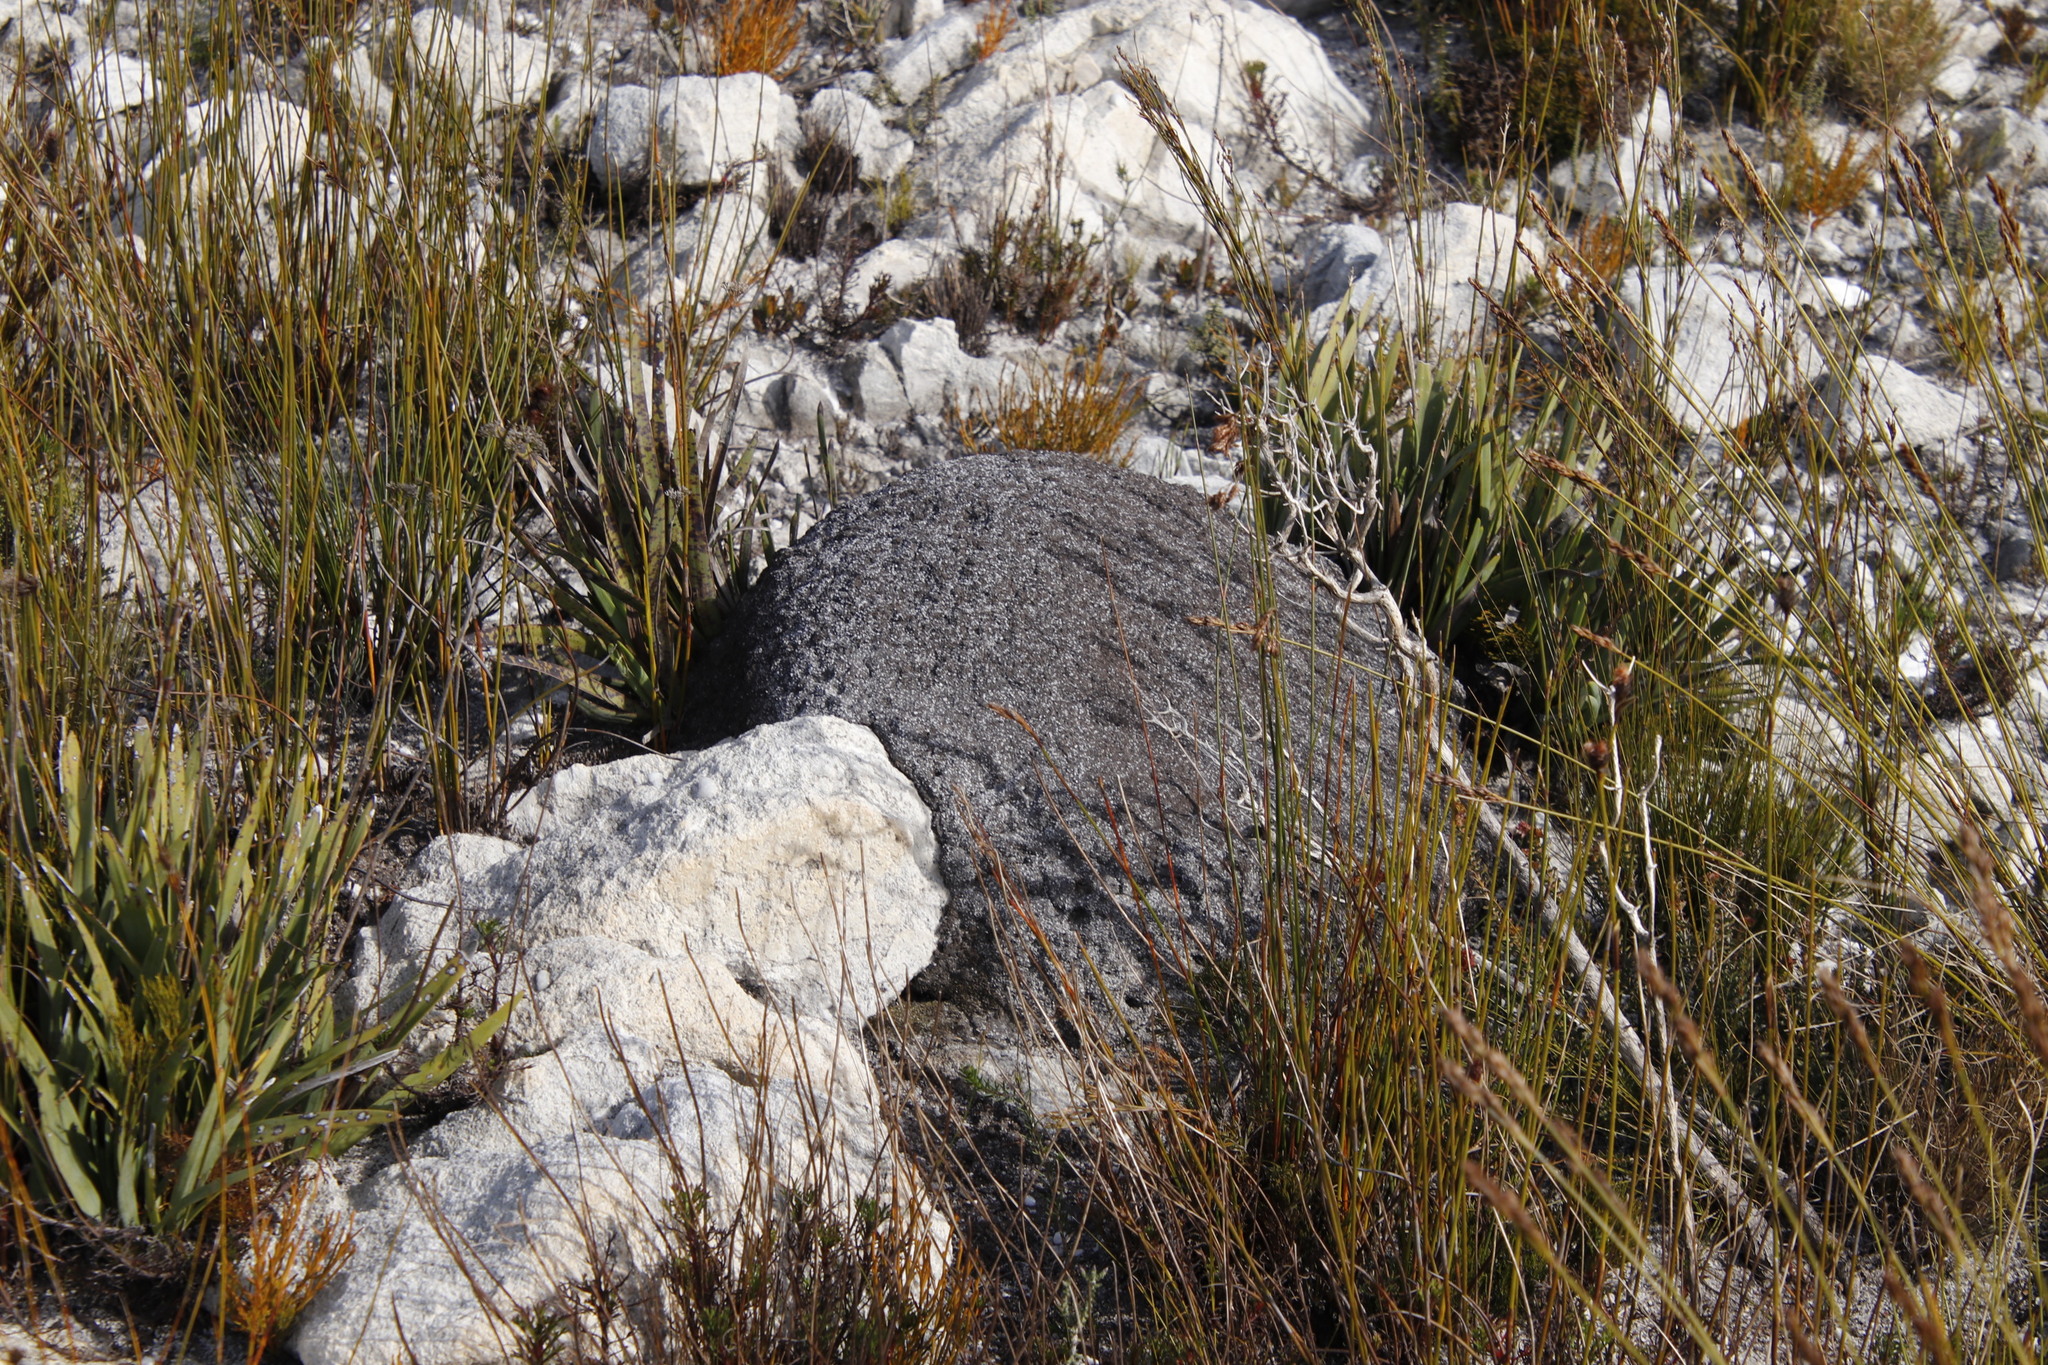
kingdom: Animalia
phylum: Arthropoda
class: Insecta
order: Blattodea
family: Termitidae
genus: Amitermes
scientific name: Amitermes hastatus
